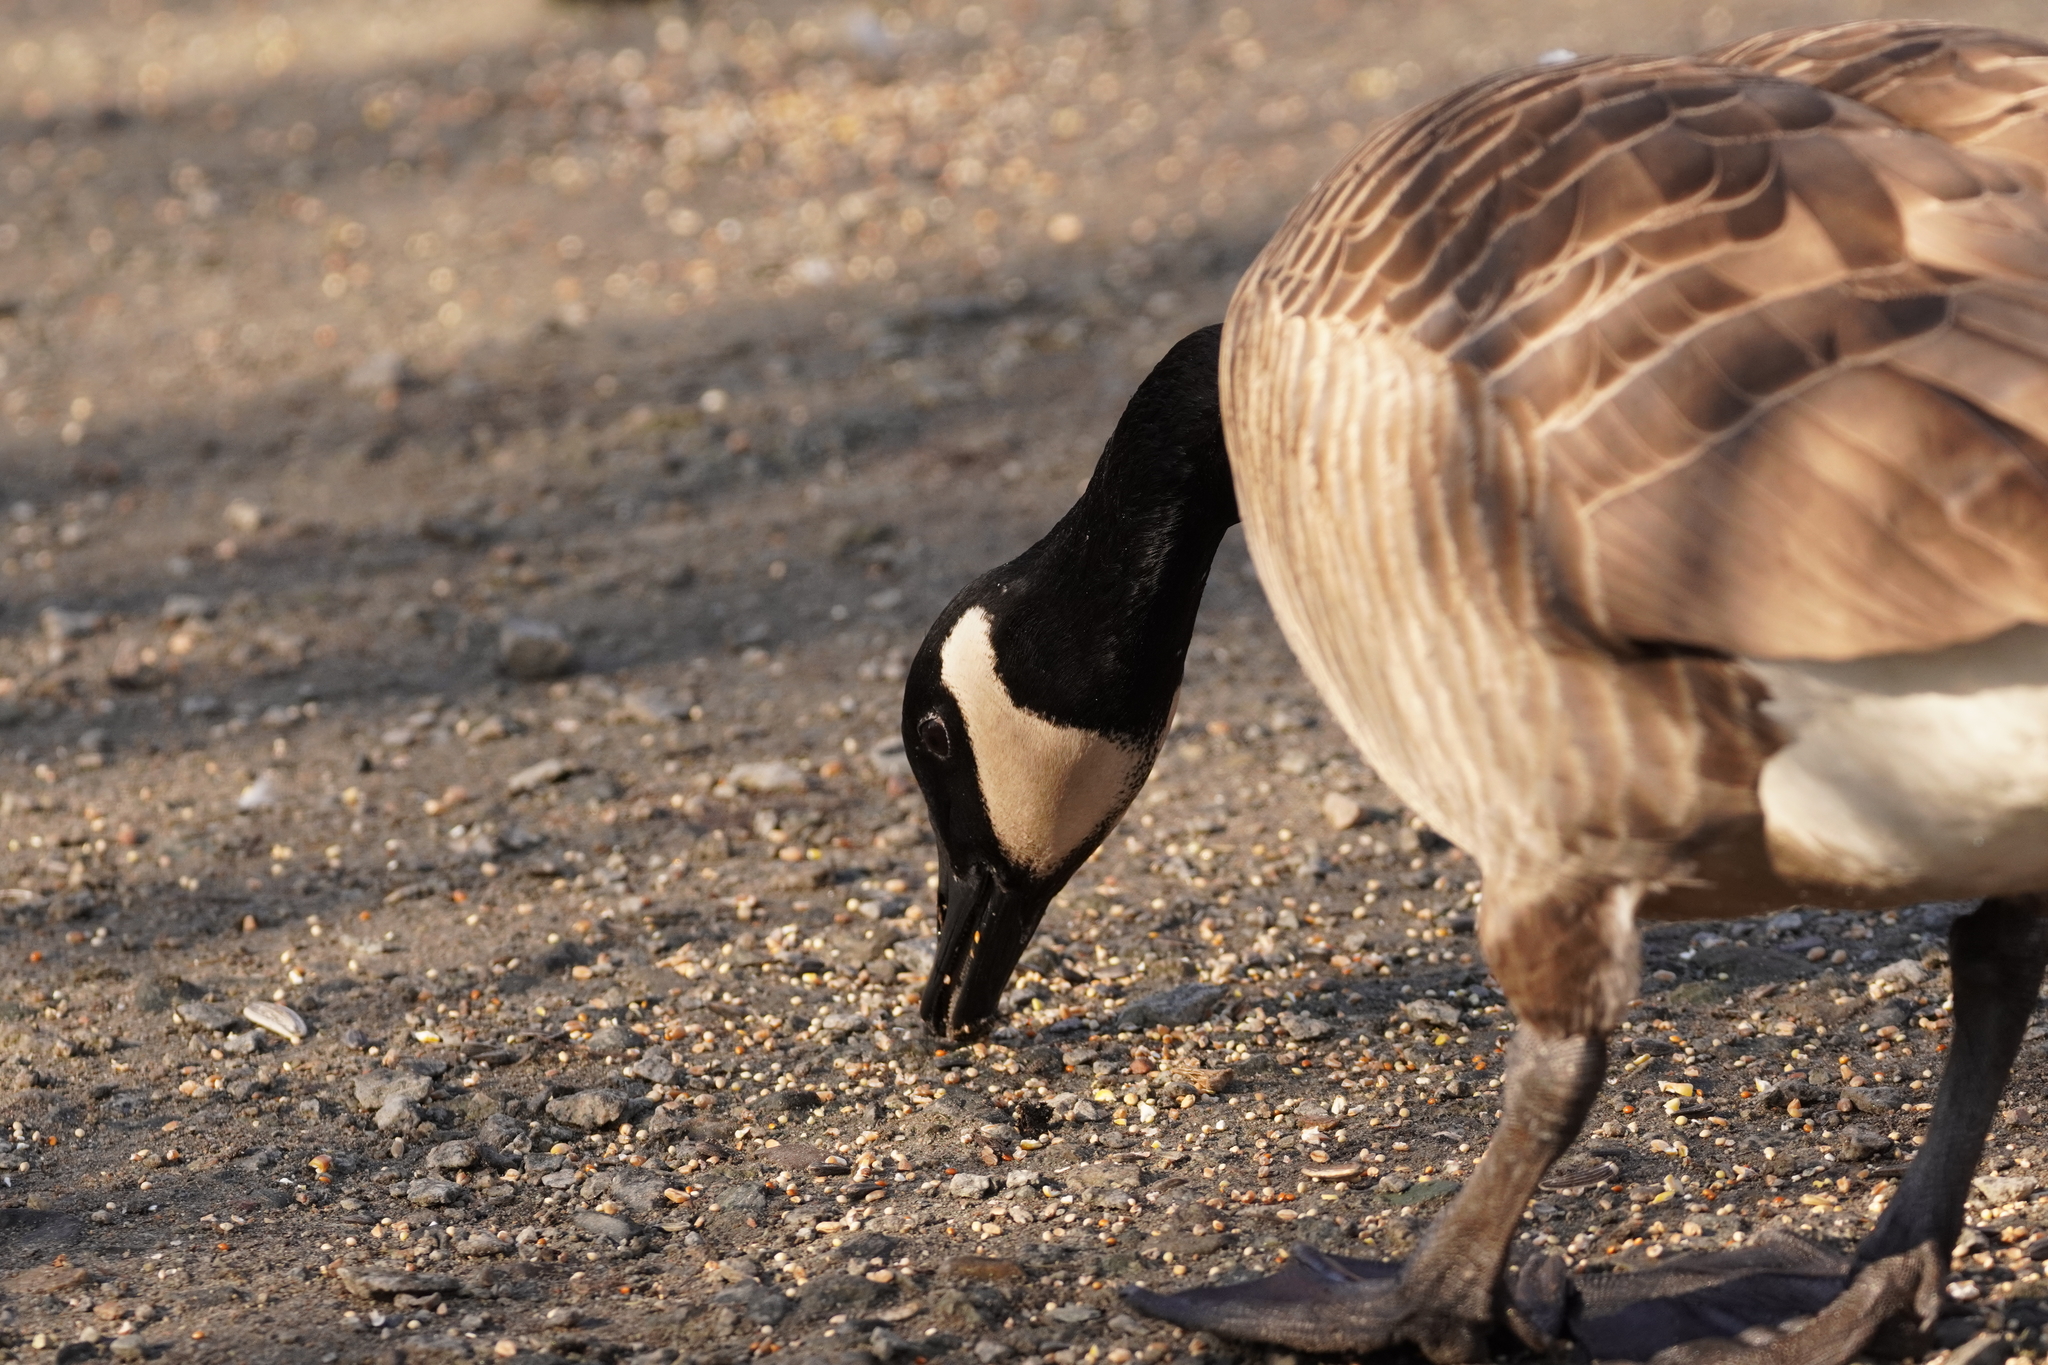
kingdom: Animalia
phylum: Chordata
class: Aves
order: Anseriformes
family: Anatidae
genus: Branta
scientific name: Branta canadensis
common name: Canada goose
